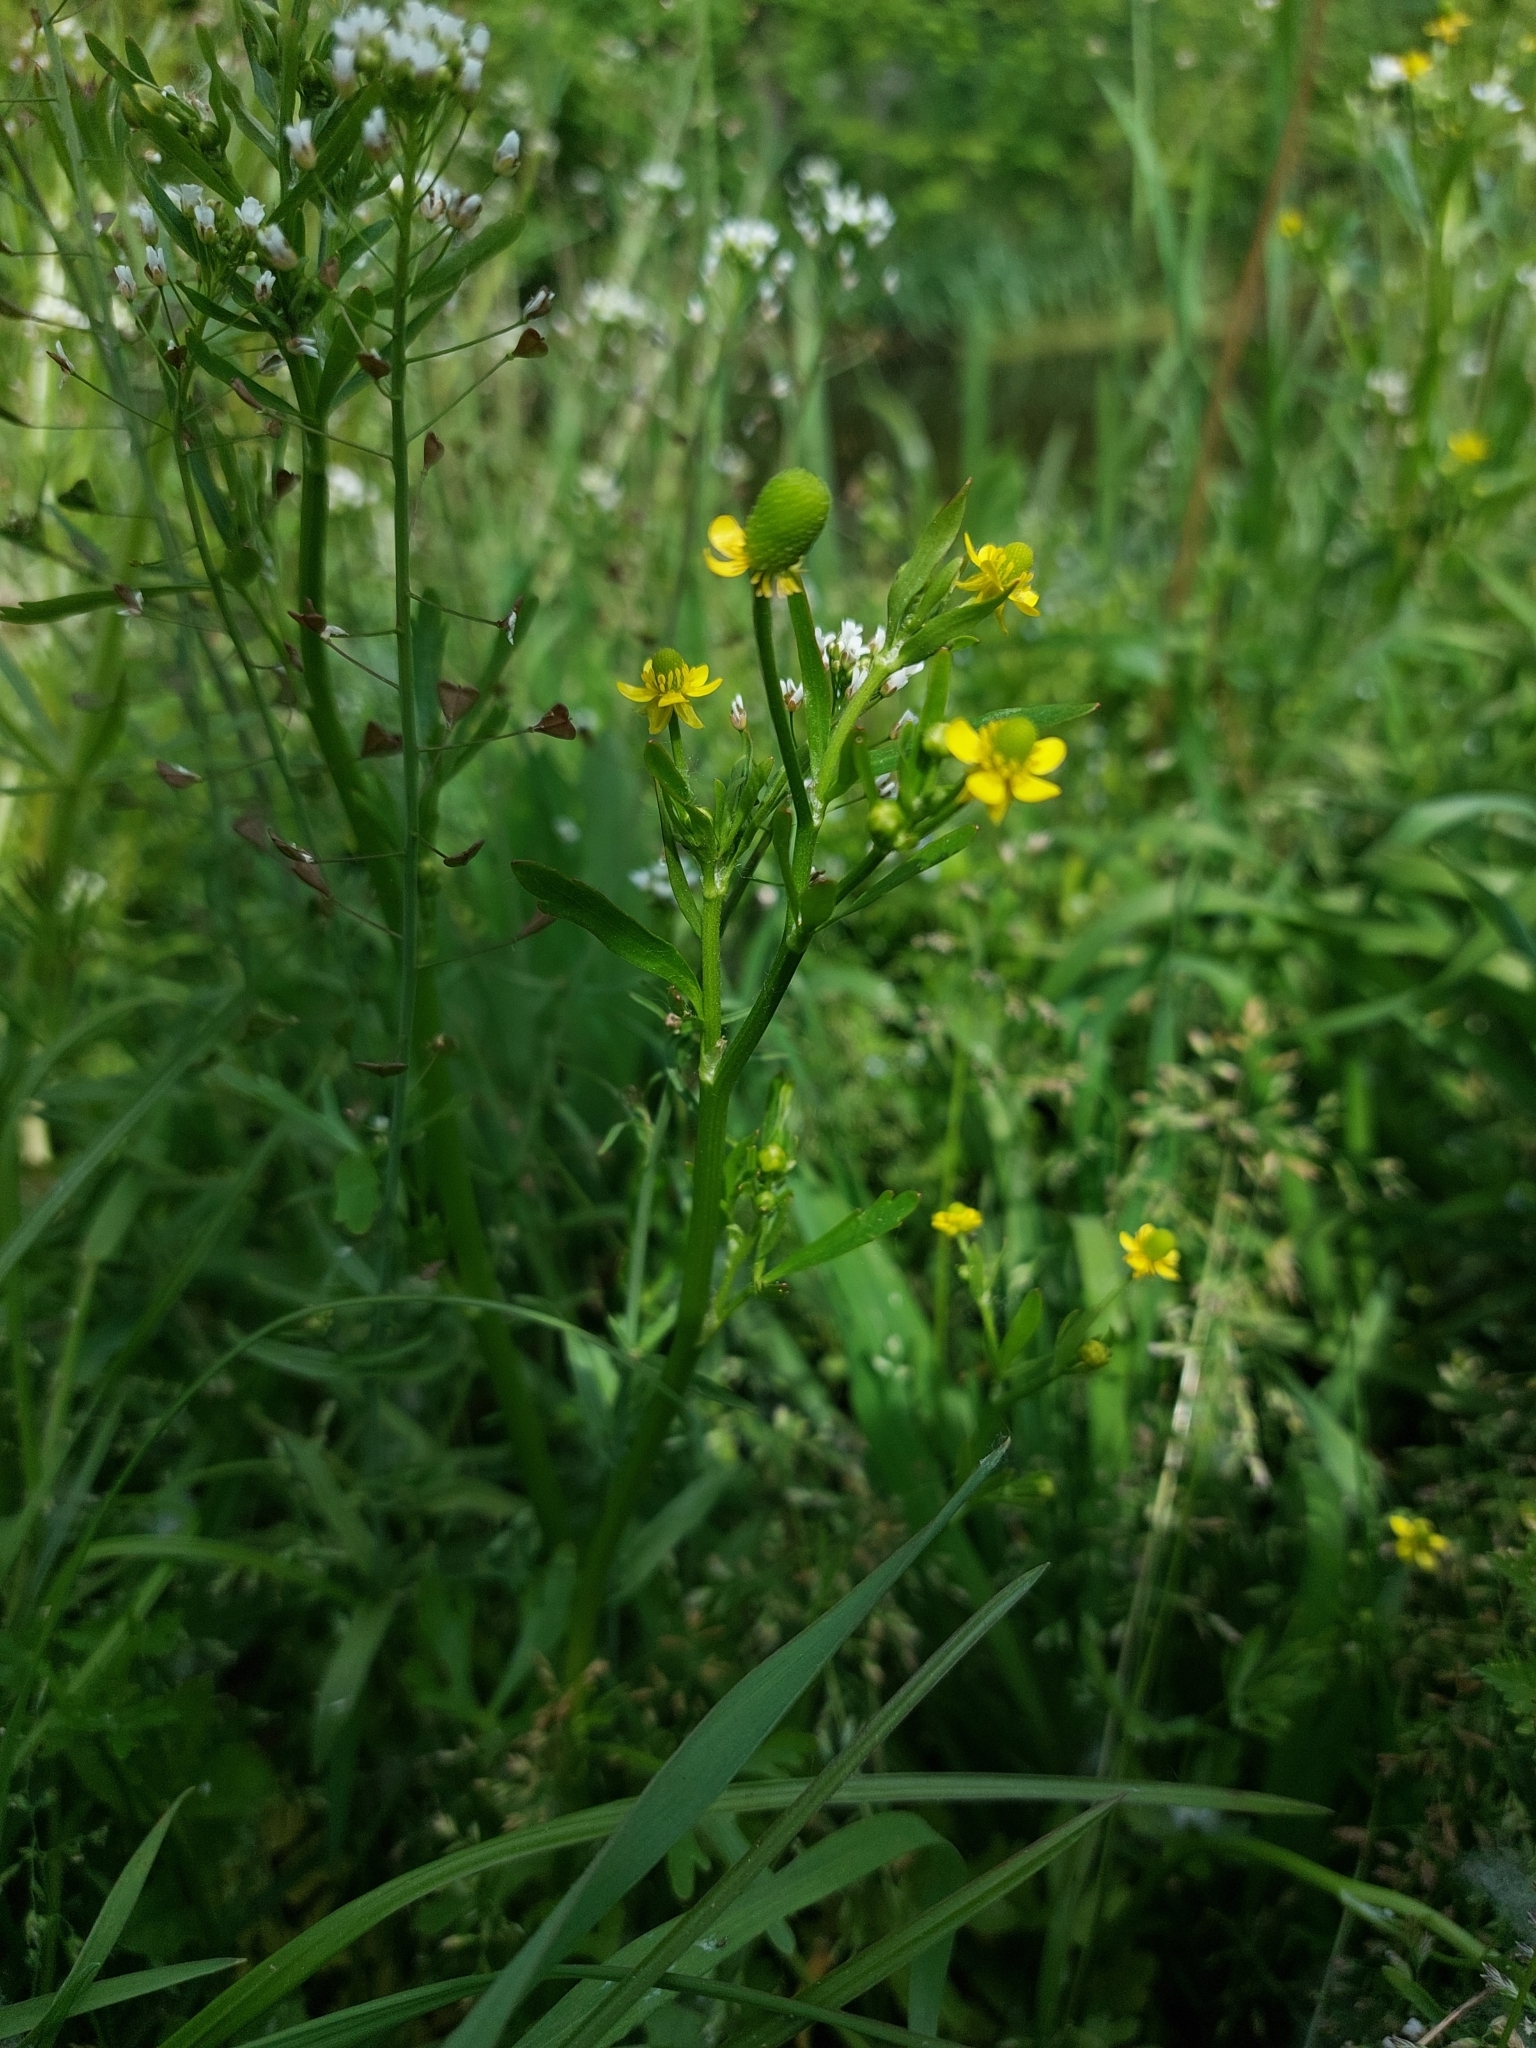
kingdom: Plantae
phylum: Tracheophyta
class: Magnoliopsida
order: Ranunculales
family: Ranunculaceae
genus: Ranunculus
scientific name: Ranunculus sceleratus
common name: Celery-leaved buttercup
